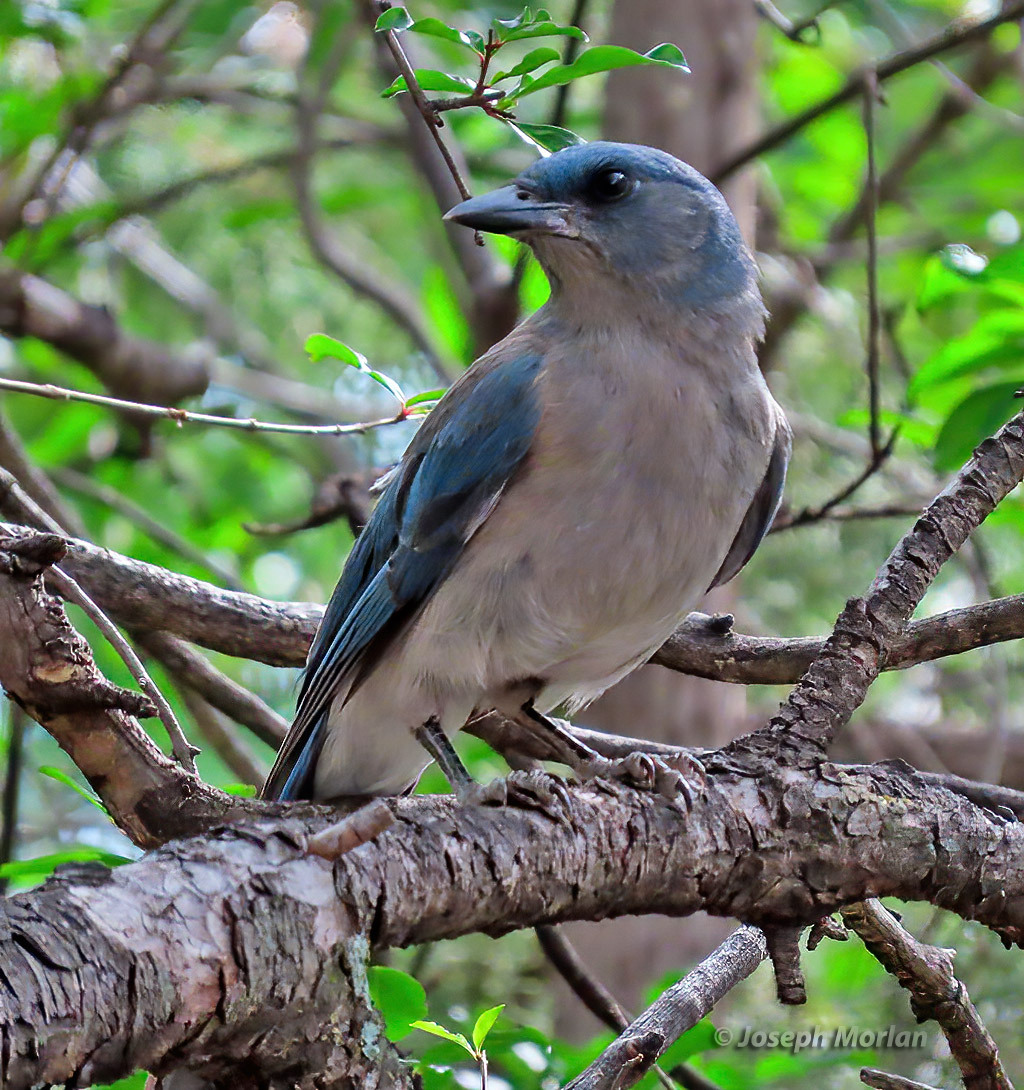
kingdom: Animalia
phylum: Chordata
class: Aves
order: Passeriformes
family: Corvidae
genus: Aphelocoma
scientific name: Aphelocoma wollweberi
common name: Mexican jay
